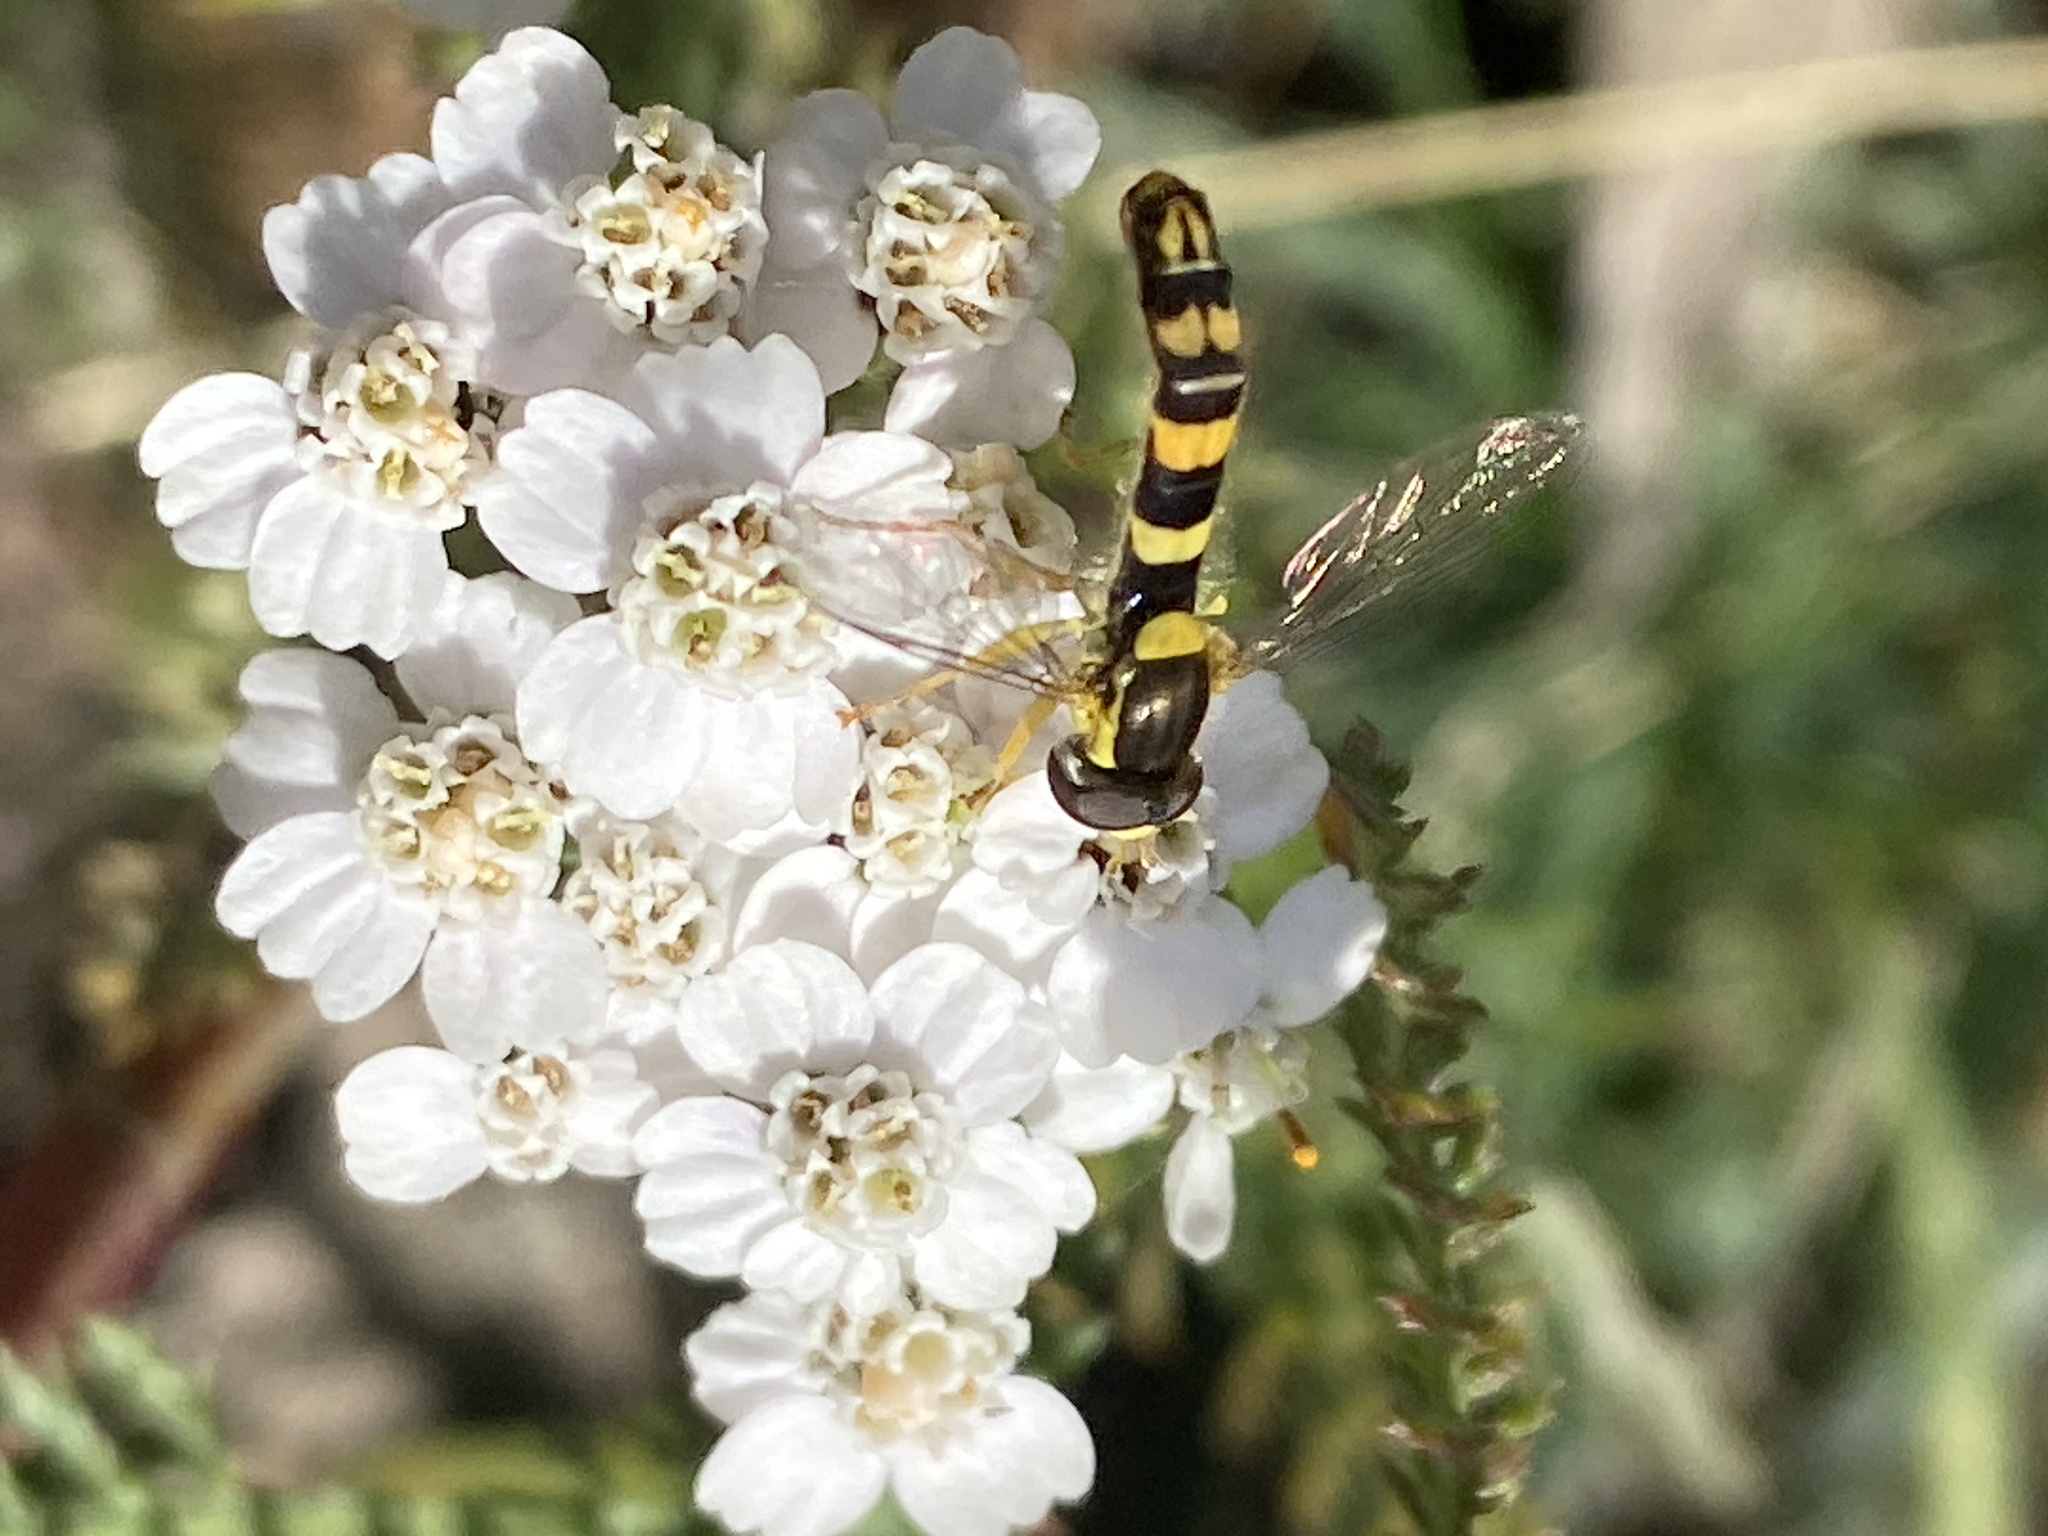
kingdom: Animalia
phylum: Arthropoda
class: Insecta
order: Diptera
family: Syrphidae
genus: Sphaerophoria
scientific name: Sphaerophoria scripta
